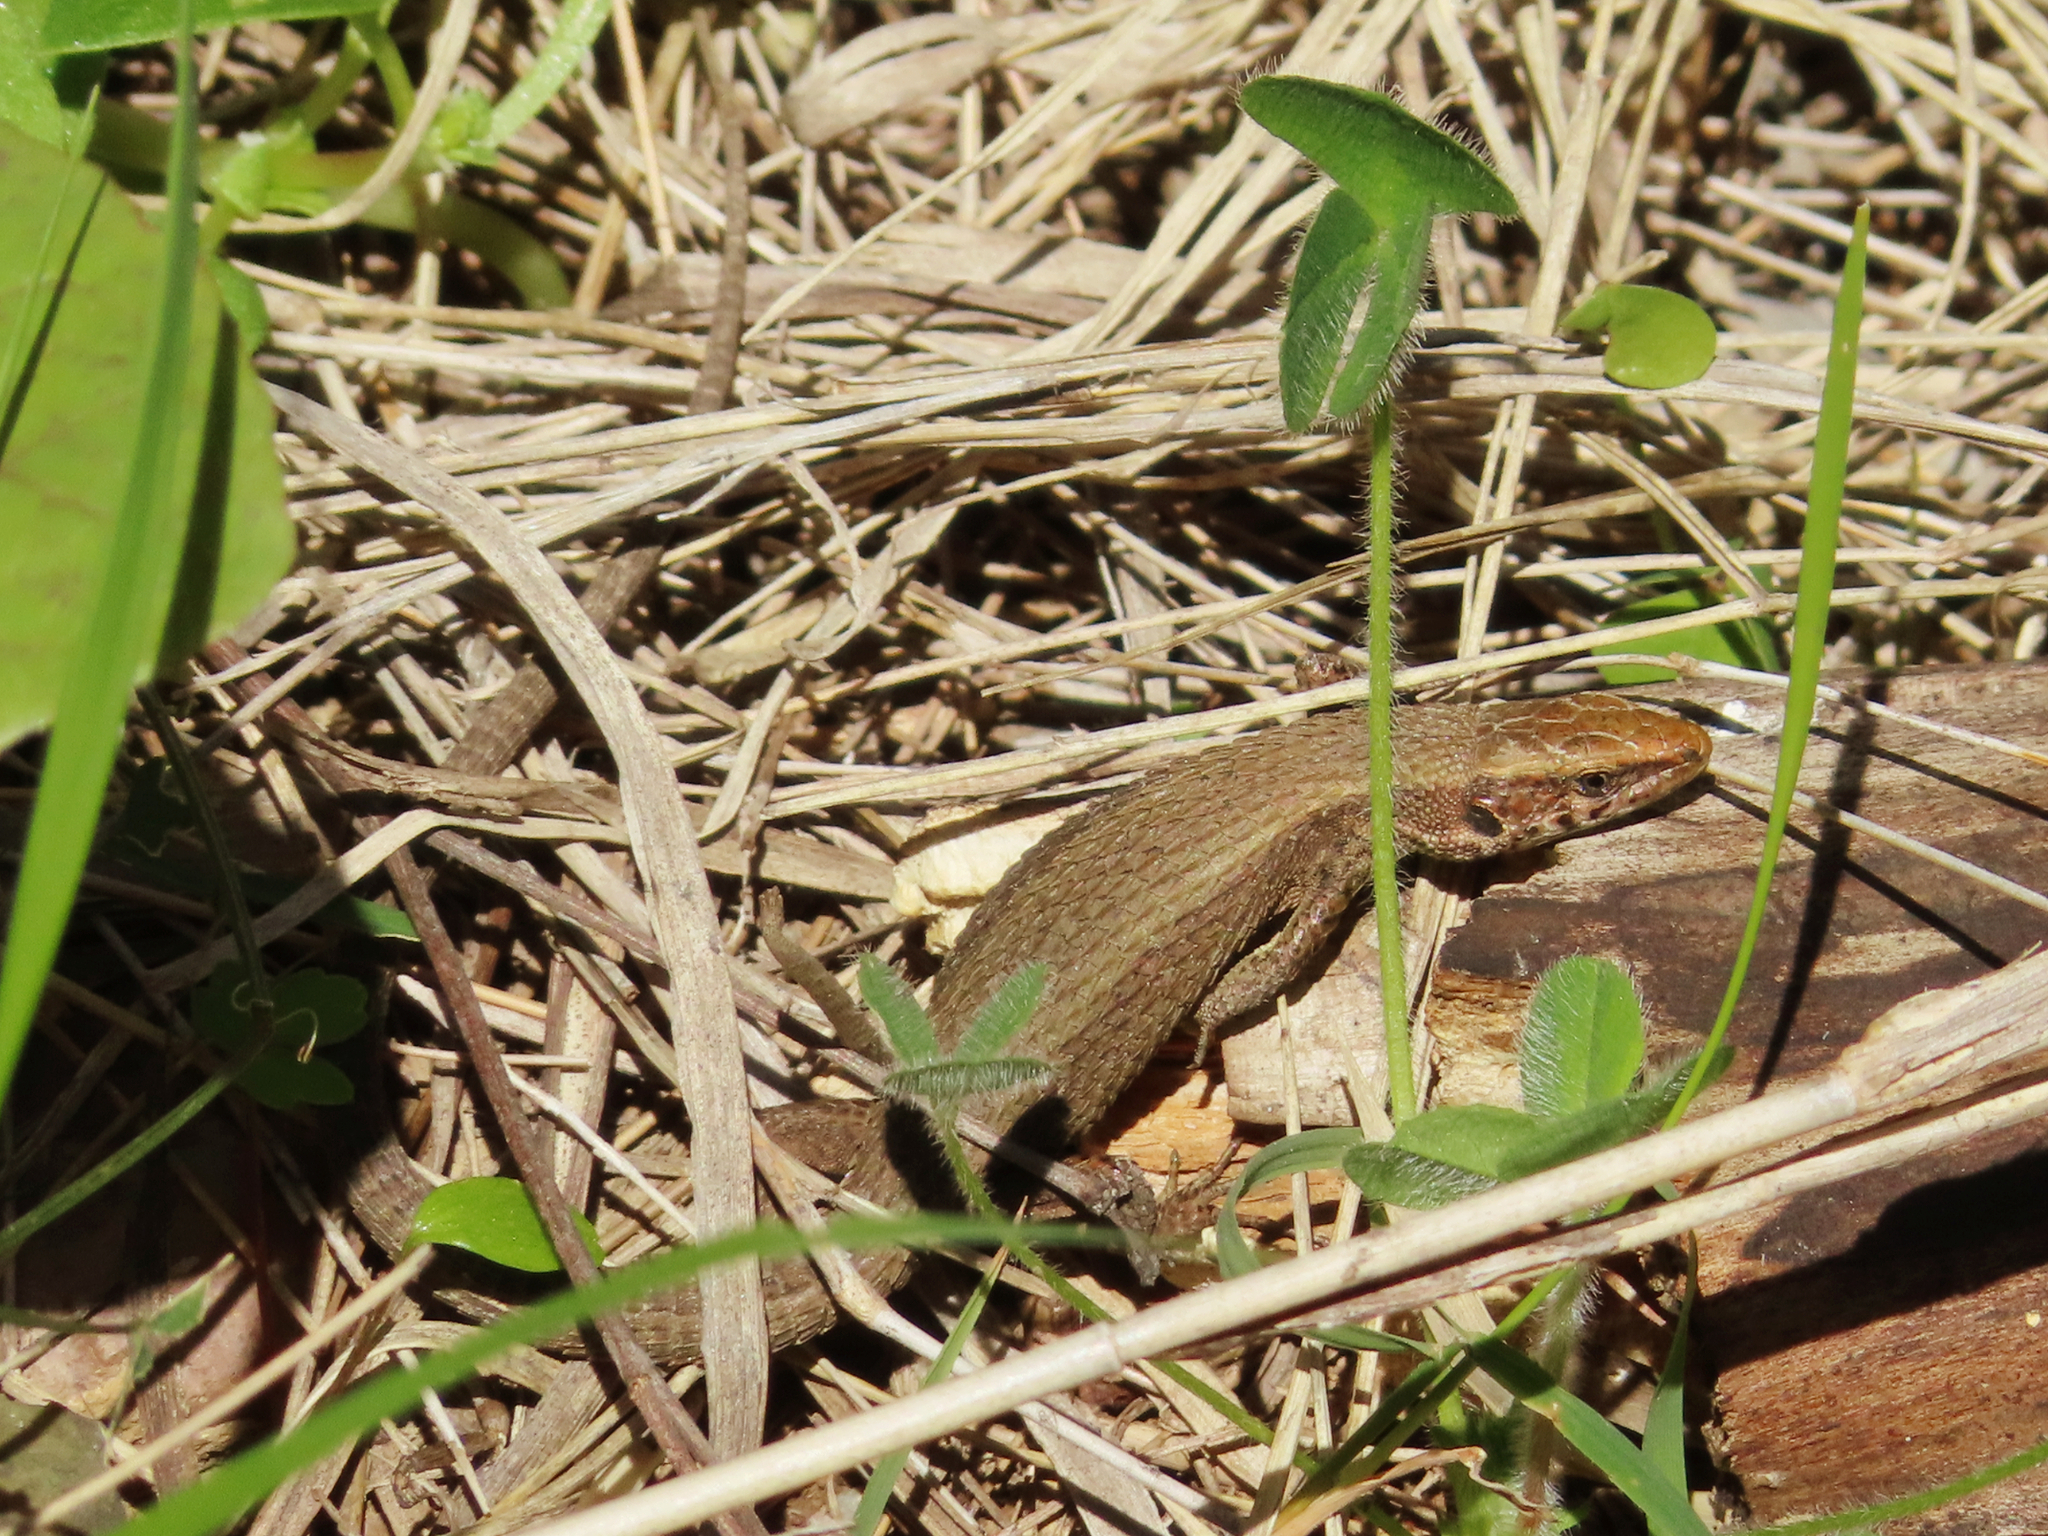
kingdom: Animalia
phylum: Chordata
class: Squamata
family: Lacertidae
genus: Algyroides
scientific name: Algyroides moreoticus
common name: Greek algyroides
